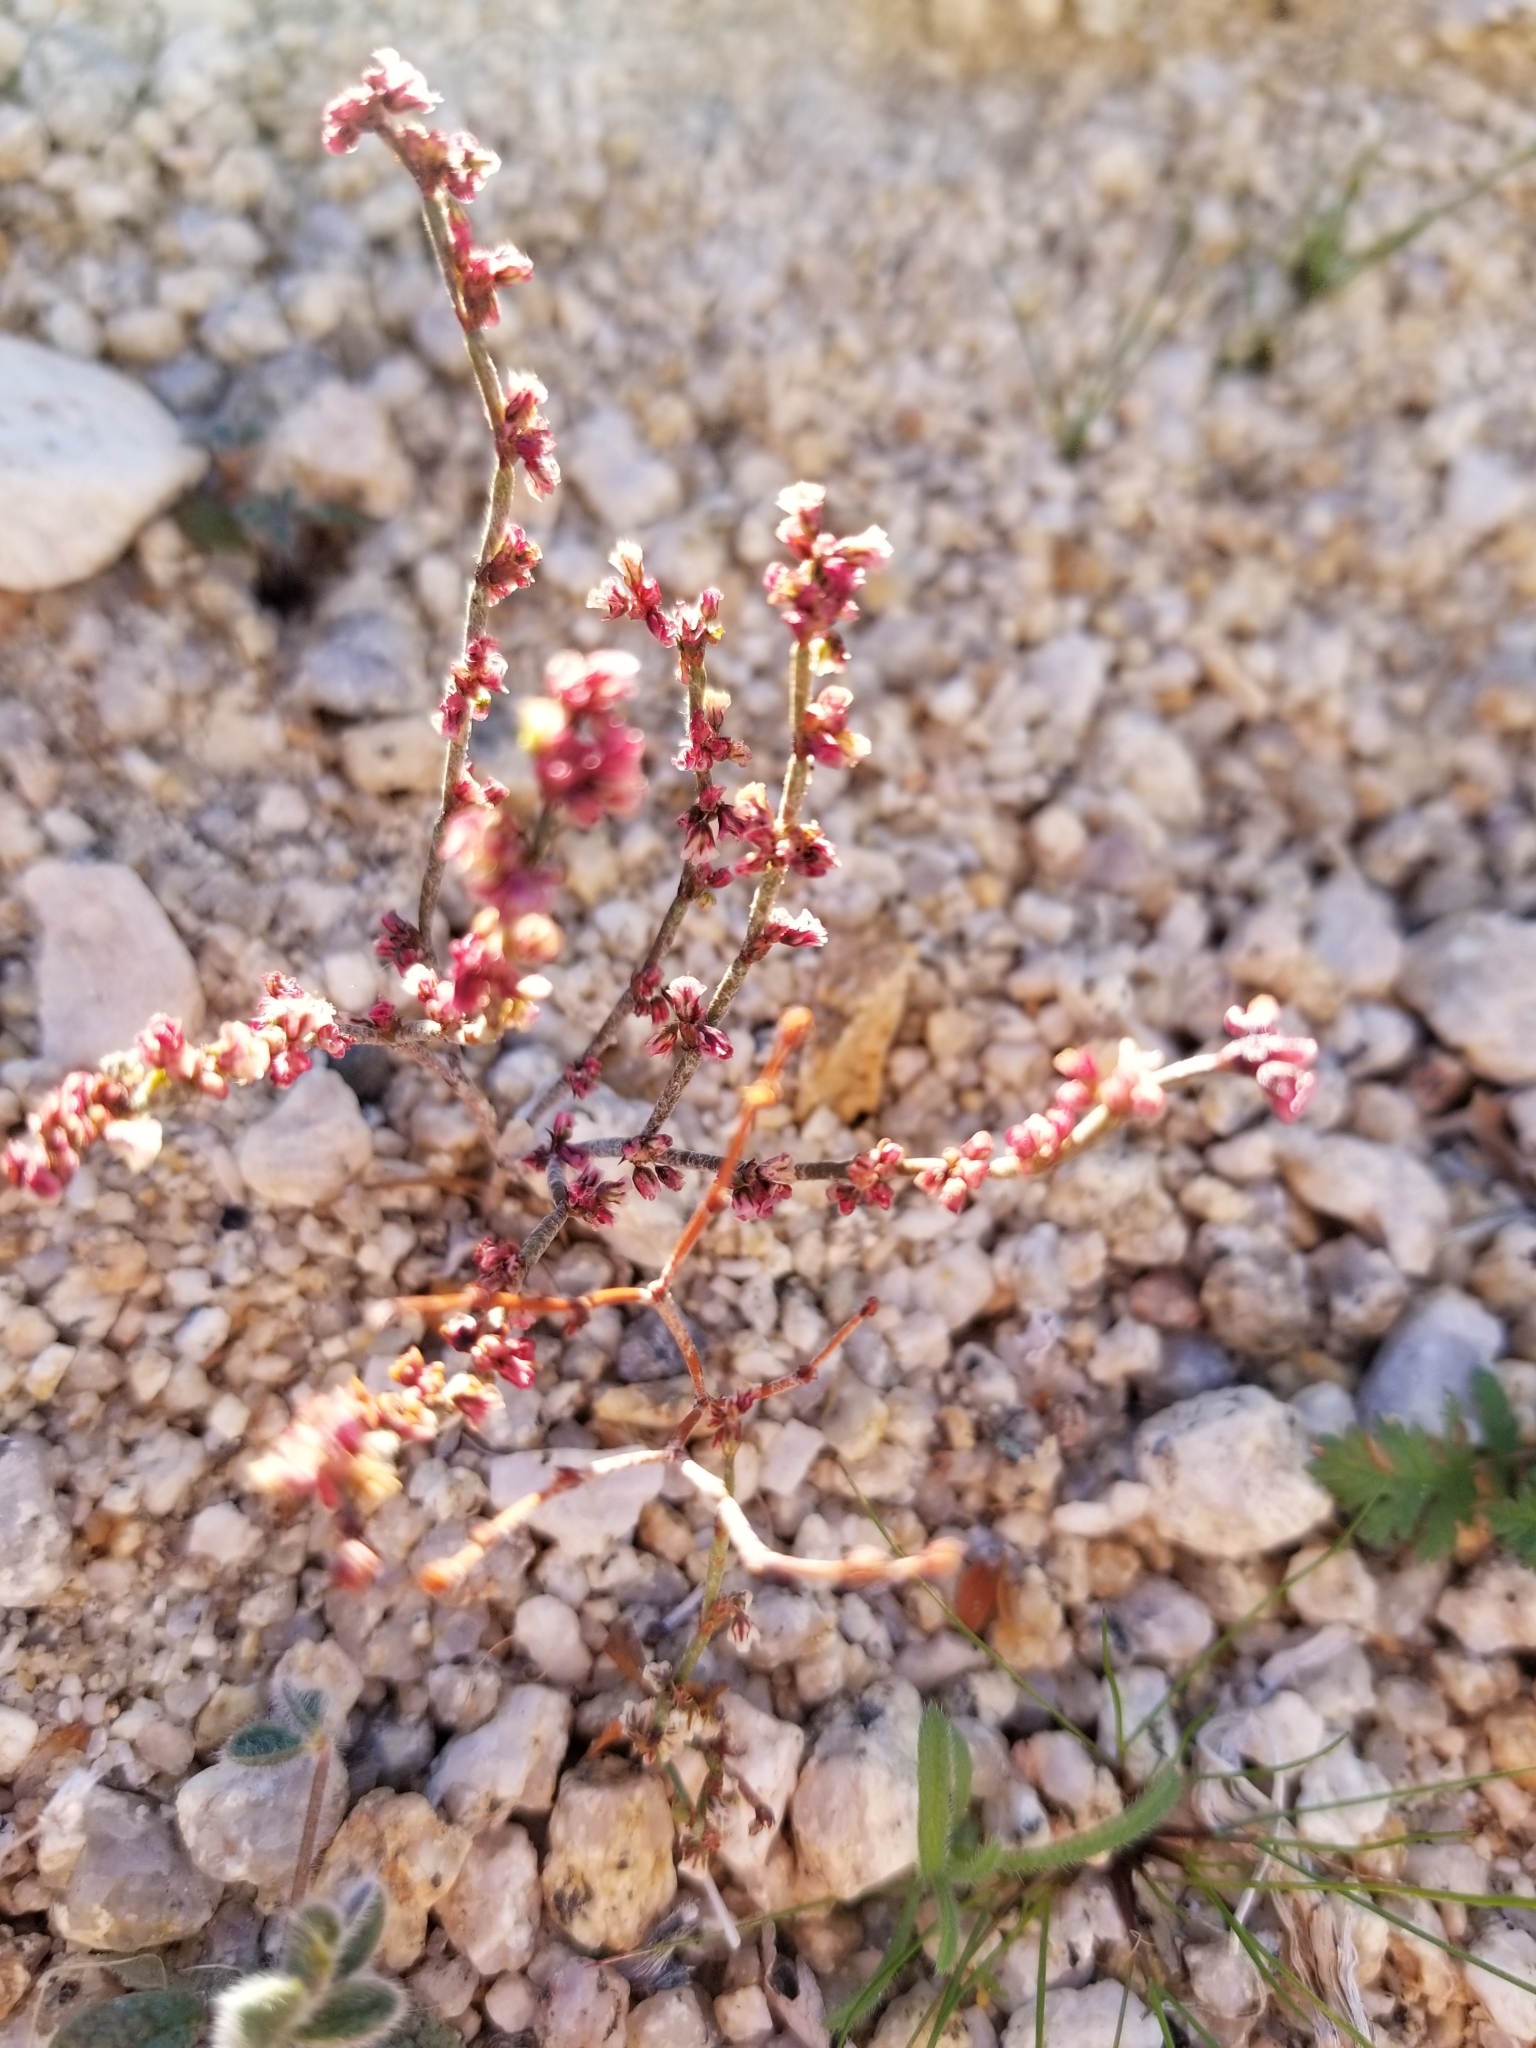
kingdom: Plantae
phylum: Tracheophyta
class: Magnoliopsida
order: Caryophyllales
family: Polygonaceae
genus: Eriogonum
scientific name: Eriogonum wrightii
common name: Bastard-sage
